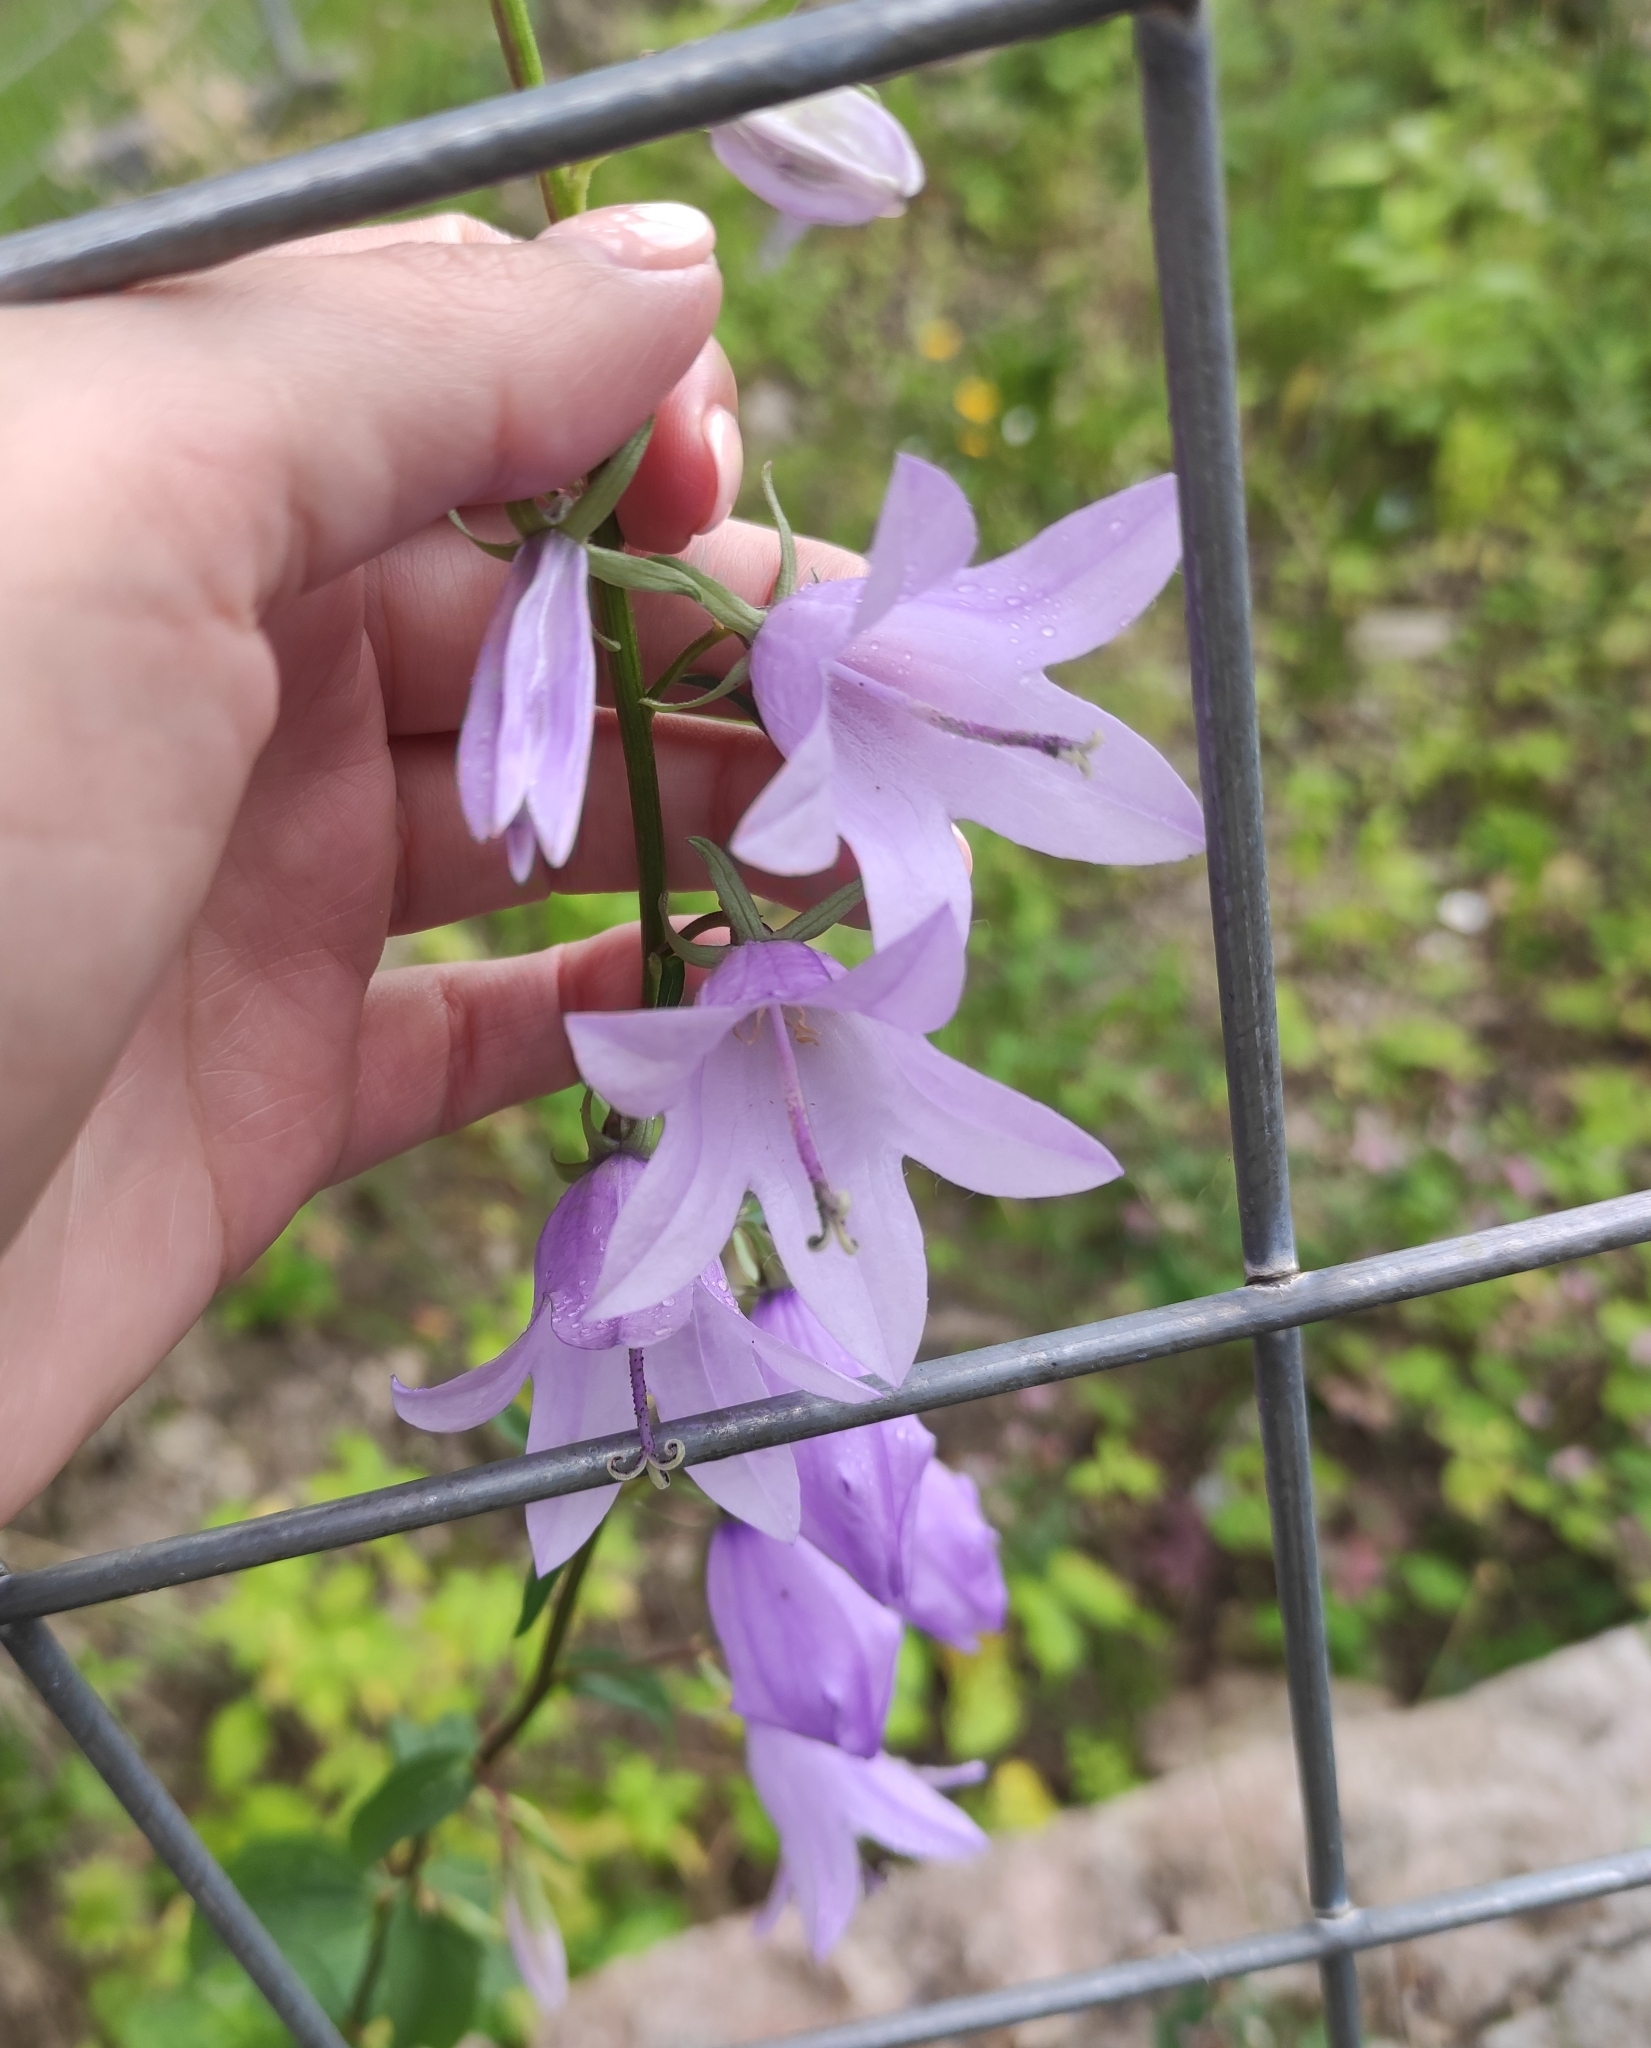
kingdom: Plantae
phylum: Tracheophyta
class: Magnoliopsida
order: Asterales
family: Campanulaceae
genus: Campanula
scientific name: Campanula rapunculoides
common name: Creeping bellflower
